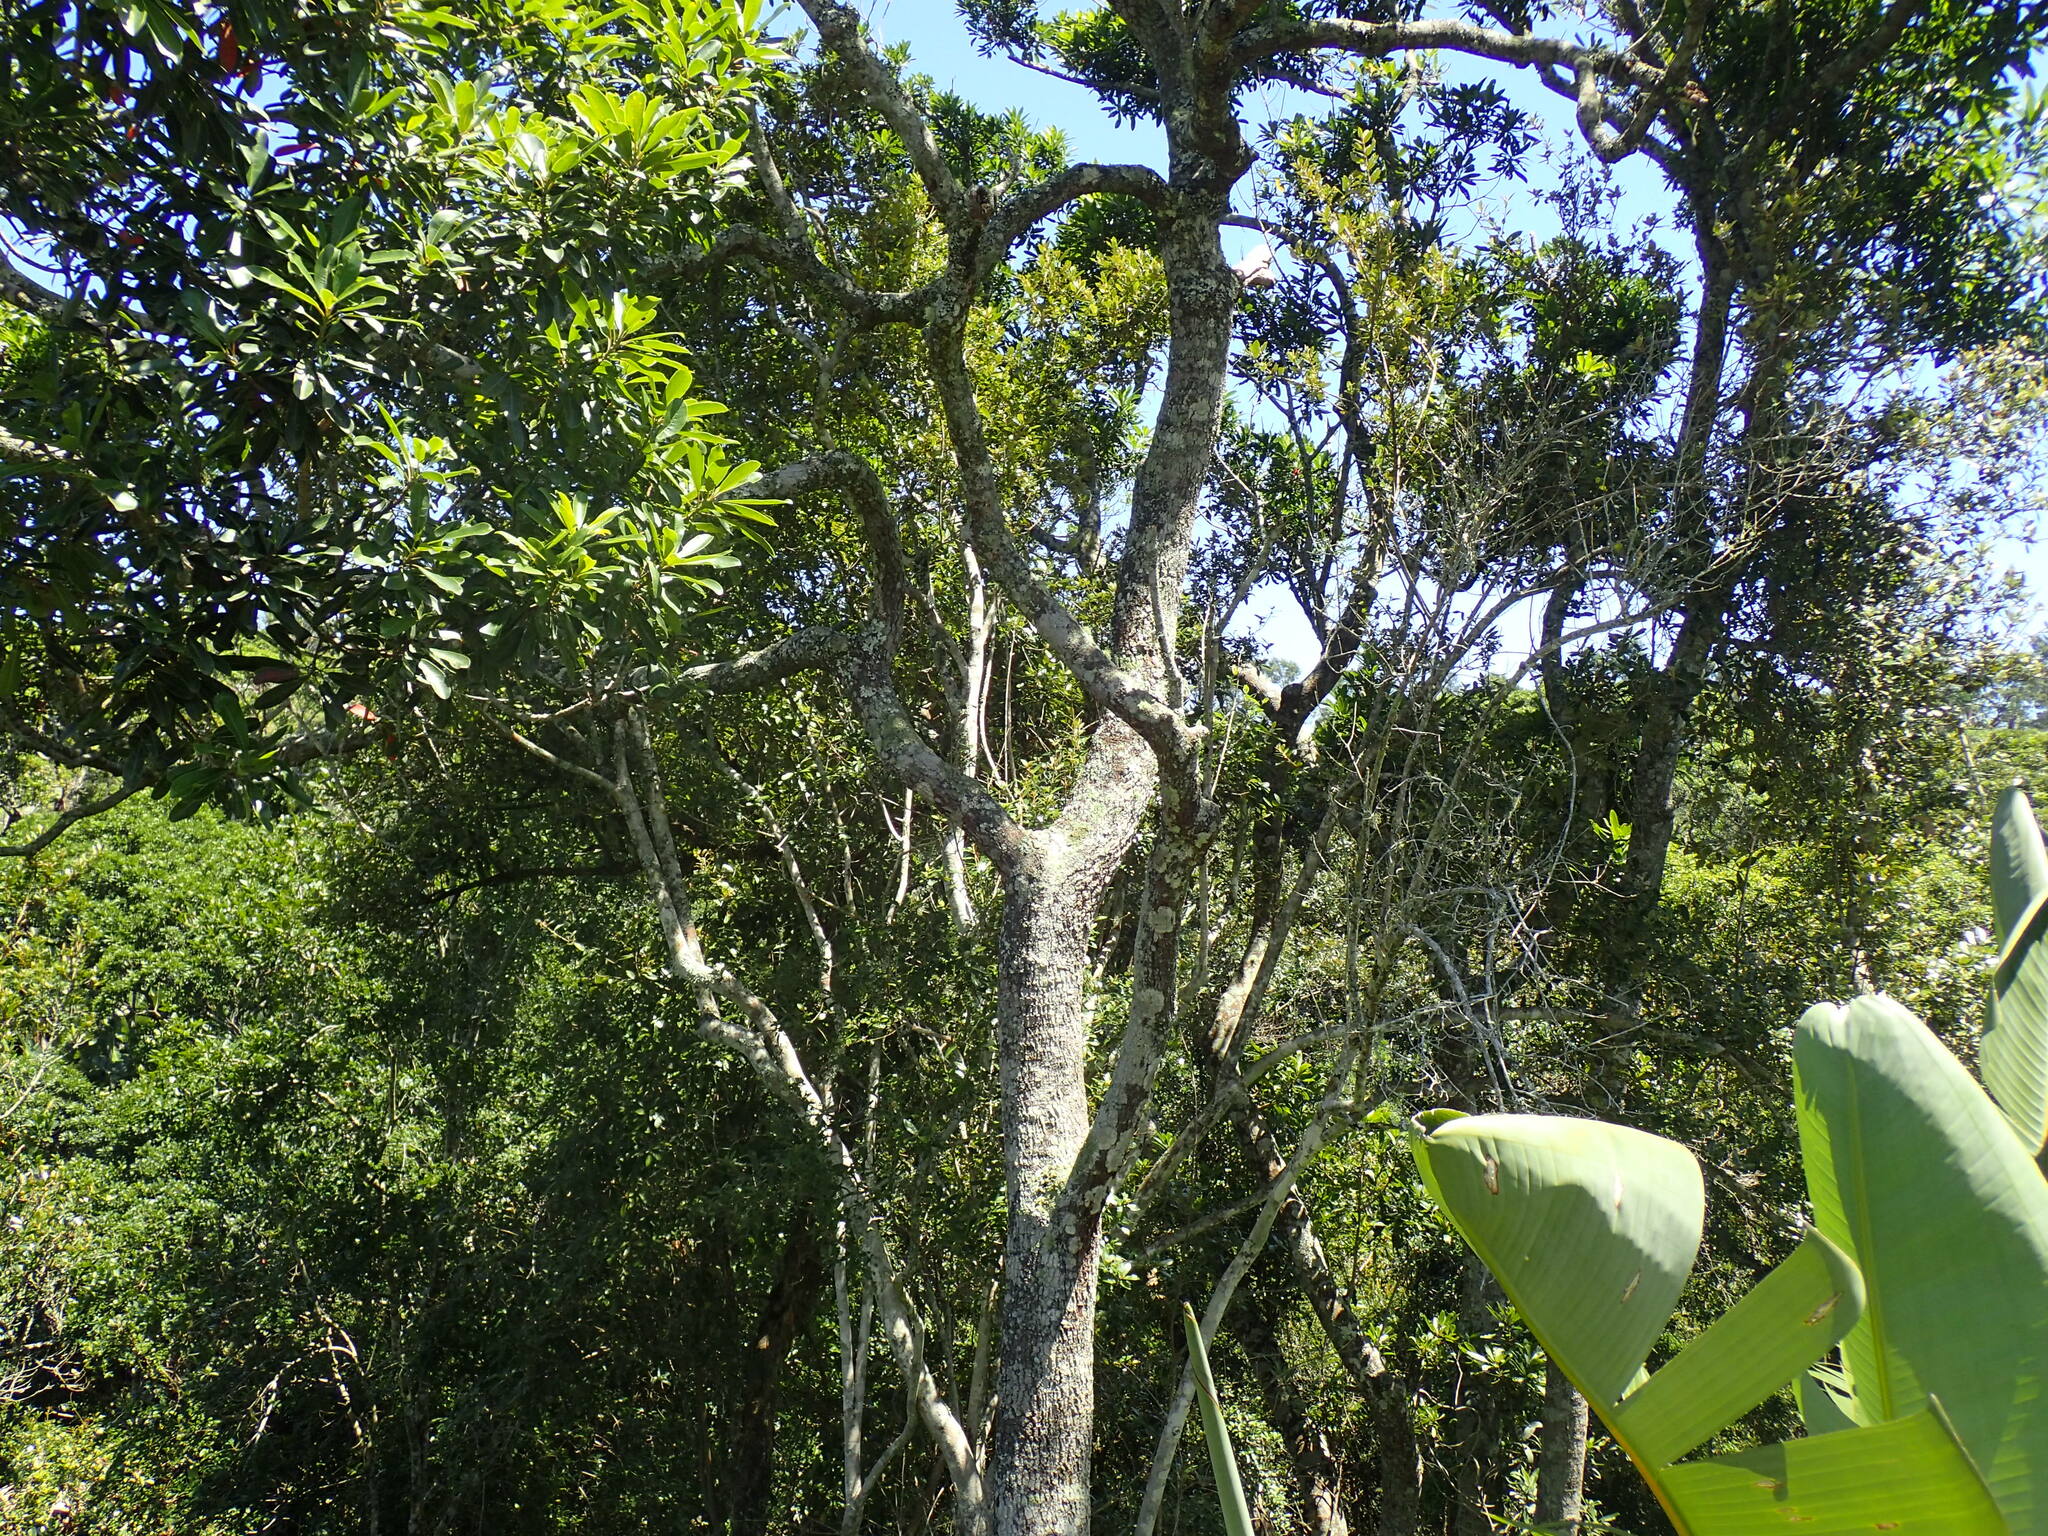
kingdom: Plantae
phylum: Tracheophyta
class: Magnoliopsida
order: Sapindales
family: Anacardiaceae
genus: Protorhus
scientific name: Protorhus longifolia
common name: Red-beech
